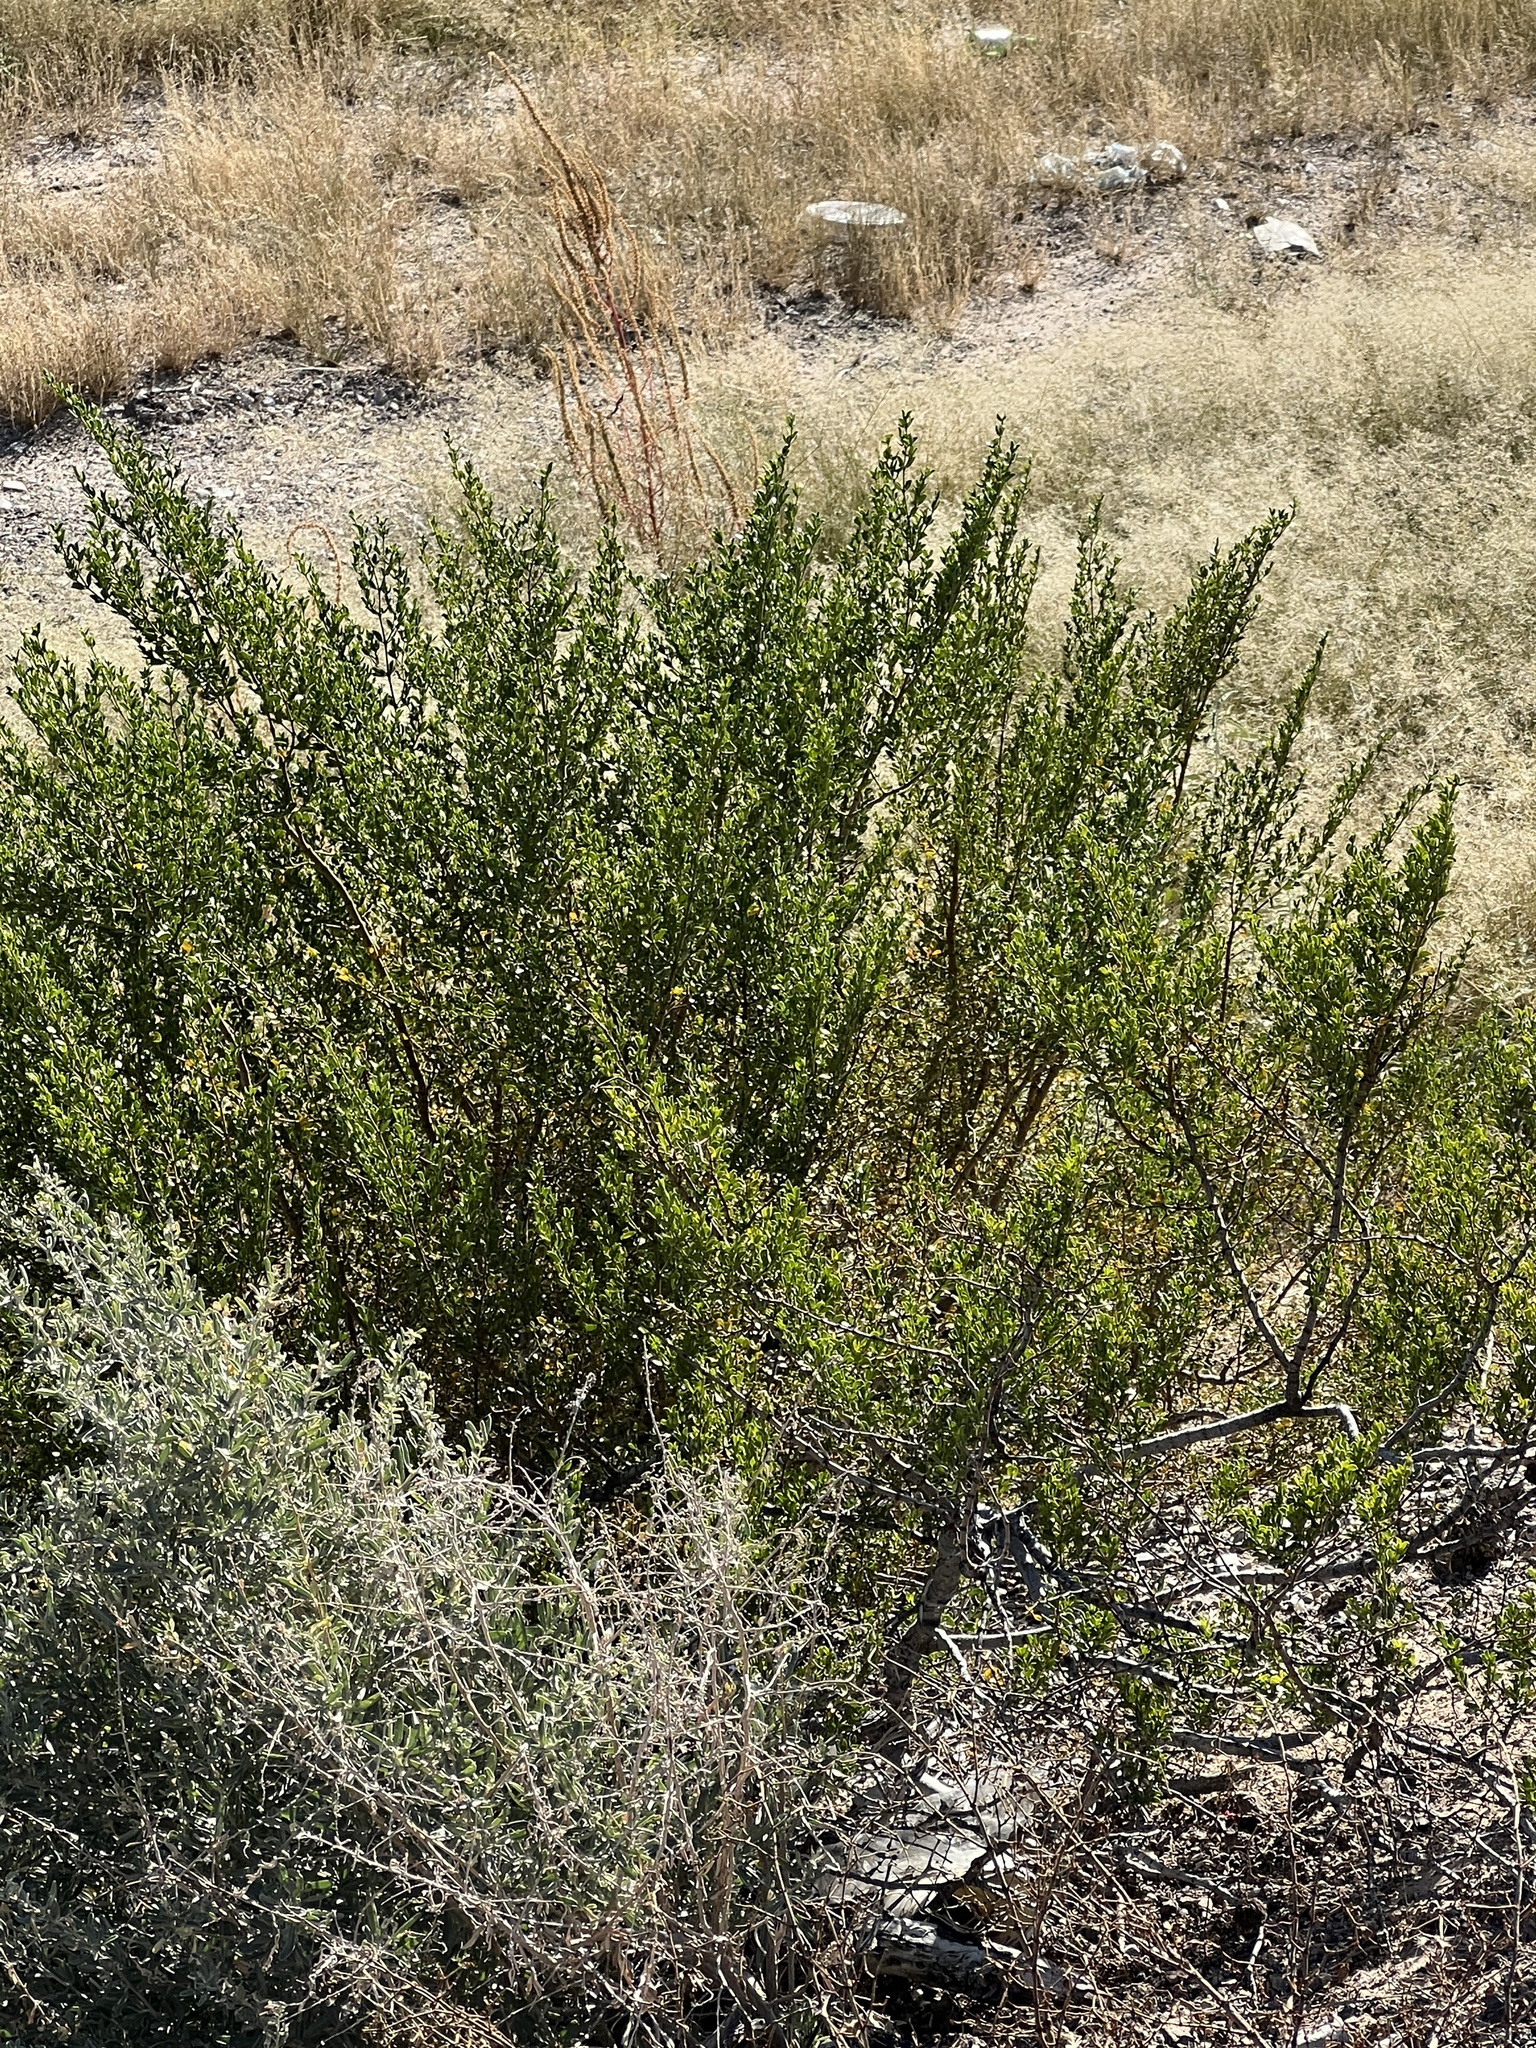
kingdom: Plantae
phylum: Tracheophyta
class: Magnoliopsida
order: Zygophyllales
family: Zygophyllaceae
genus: Larrea
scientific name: Larrea tridentata
